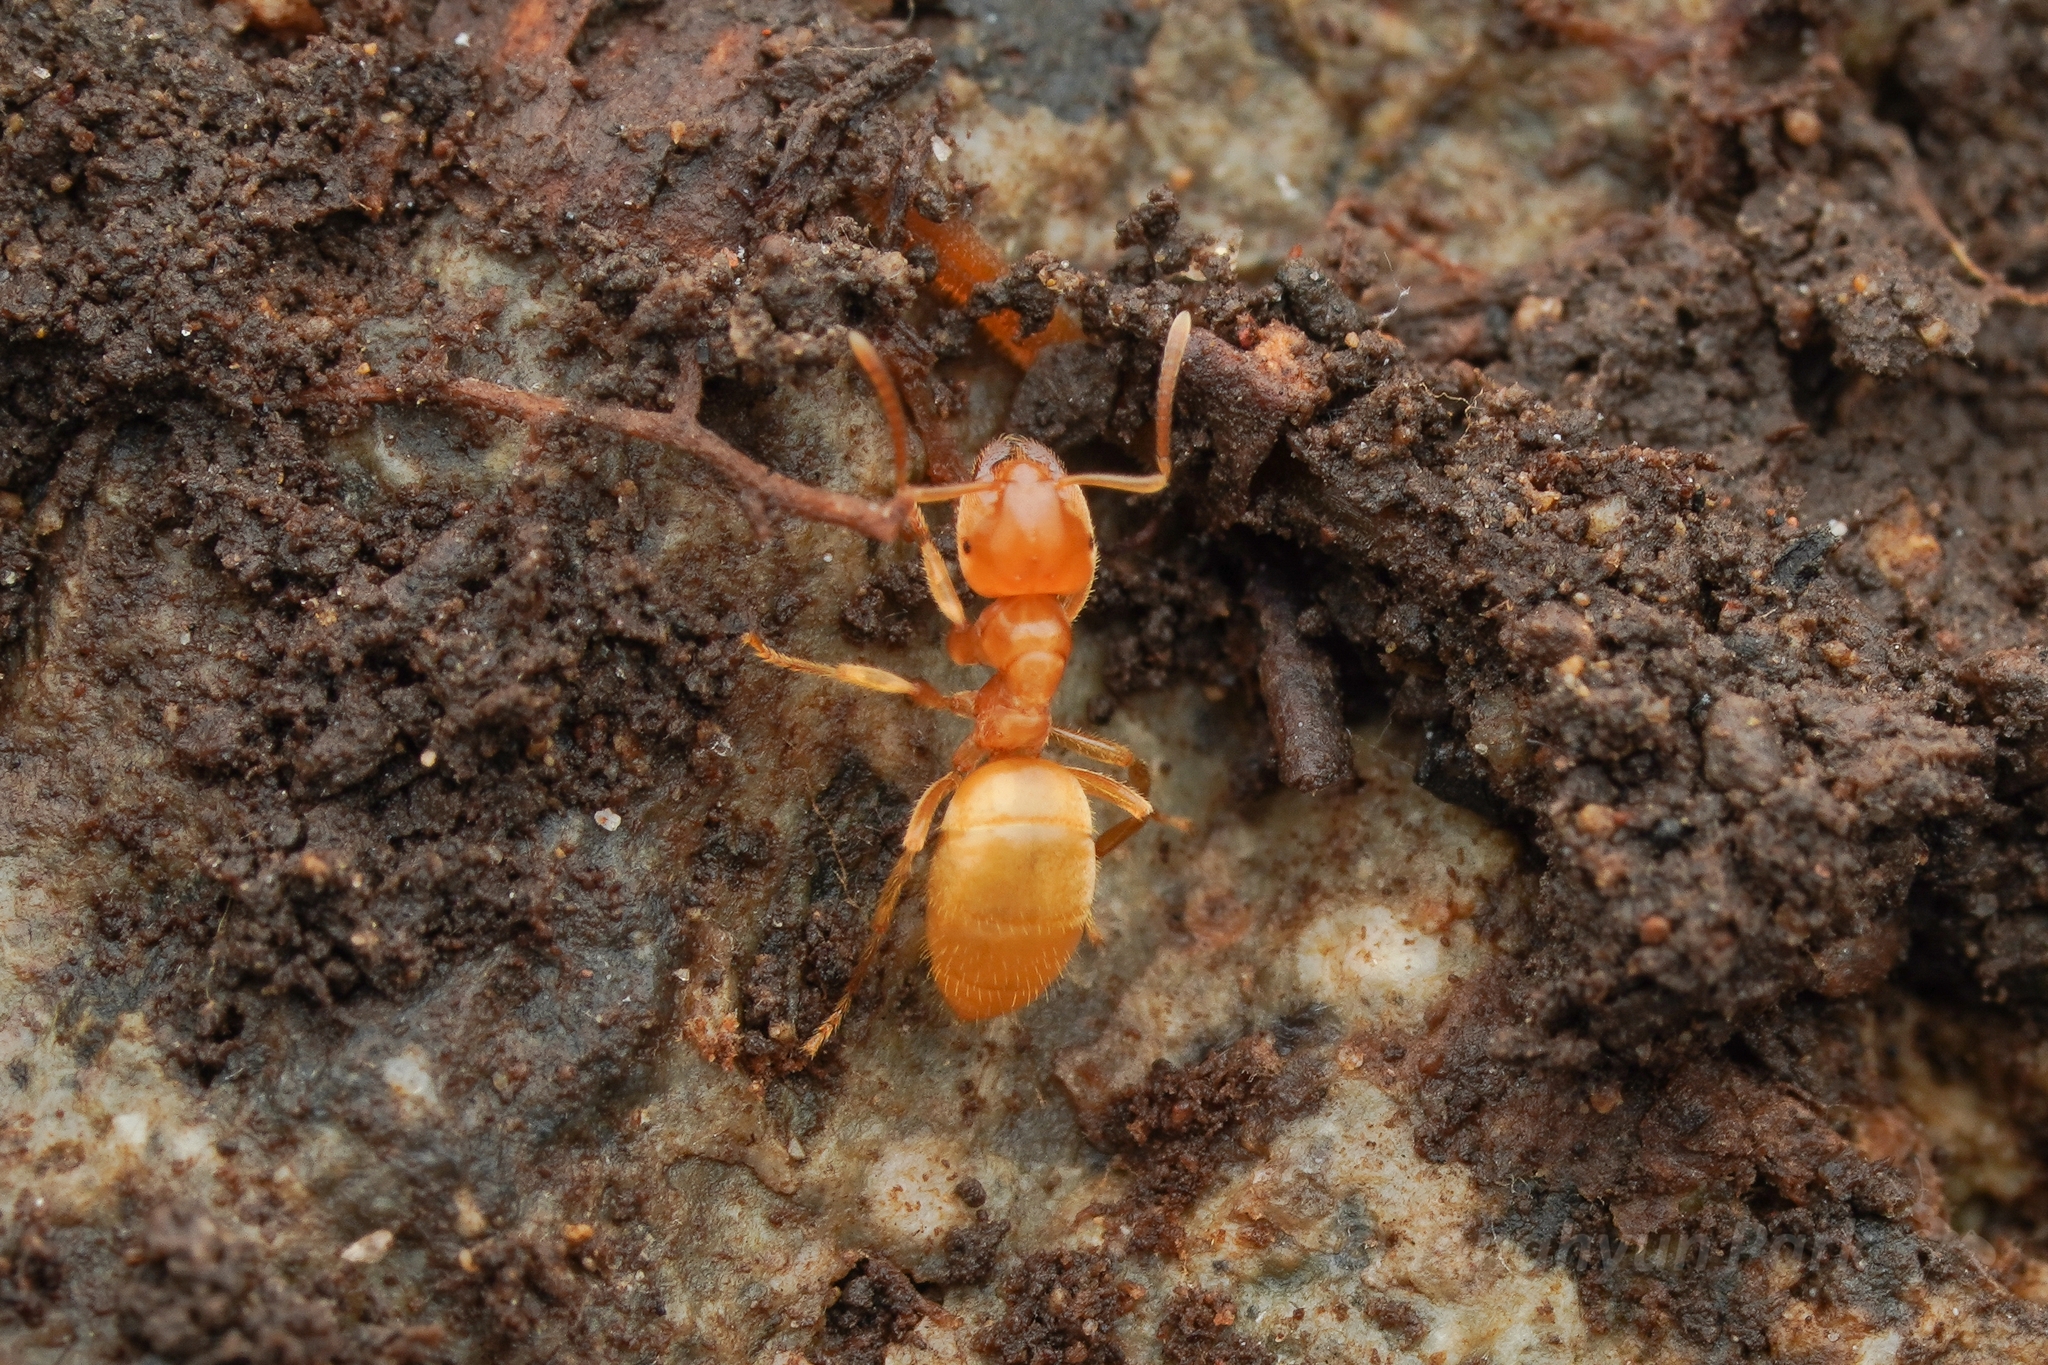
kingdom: Animalia
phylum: Arthropoda
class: Insecta
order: Hymenoptera
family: Formicidae
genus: Lasius
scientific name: Lasius talpa
